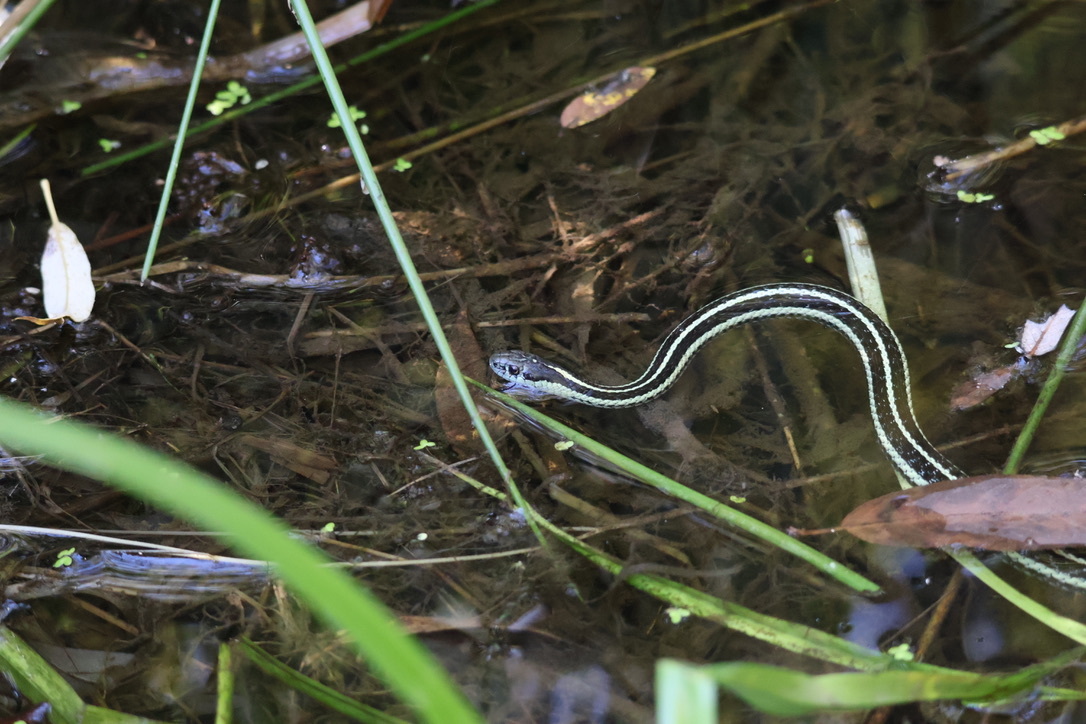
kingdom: Animalia
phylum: Chordata
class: Squamata
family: Colubridae
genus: Thamnophis
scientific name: Thamnophis sirtalis
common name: Common garter snake
